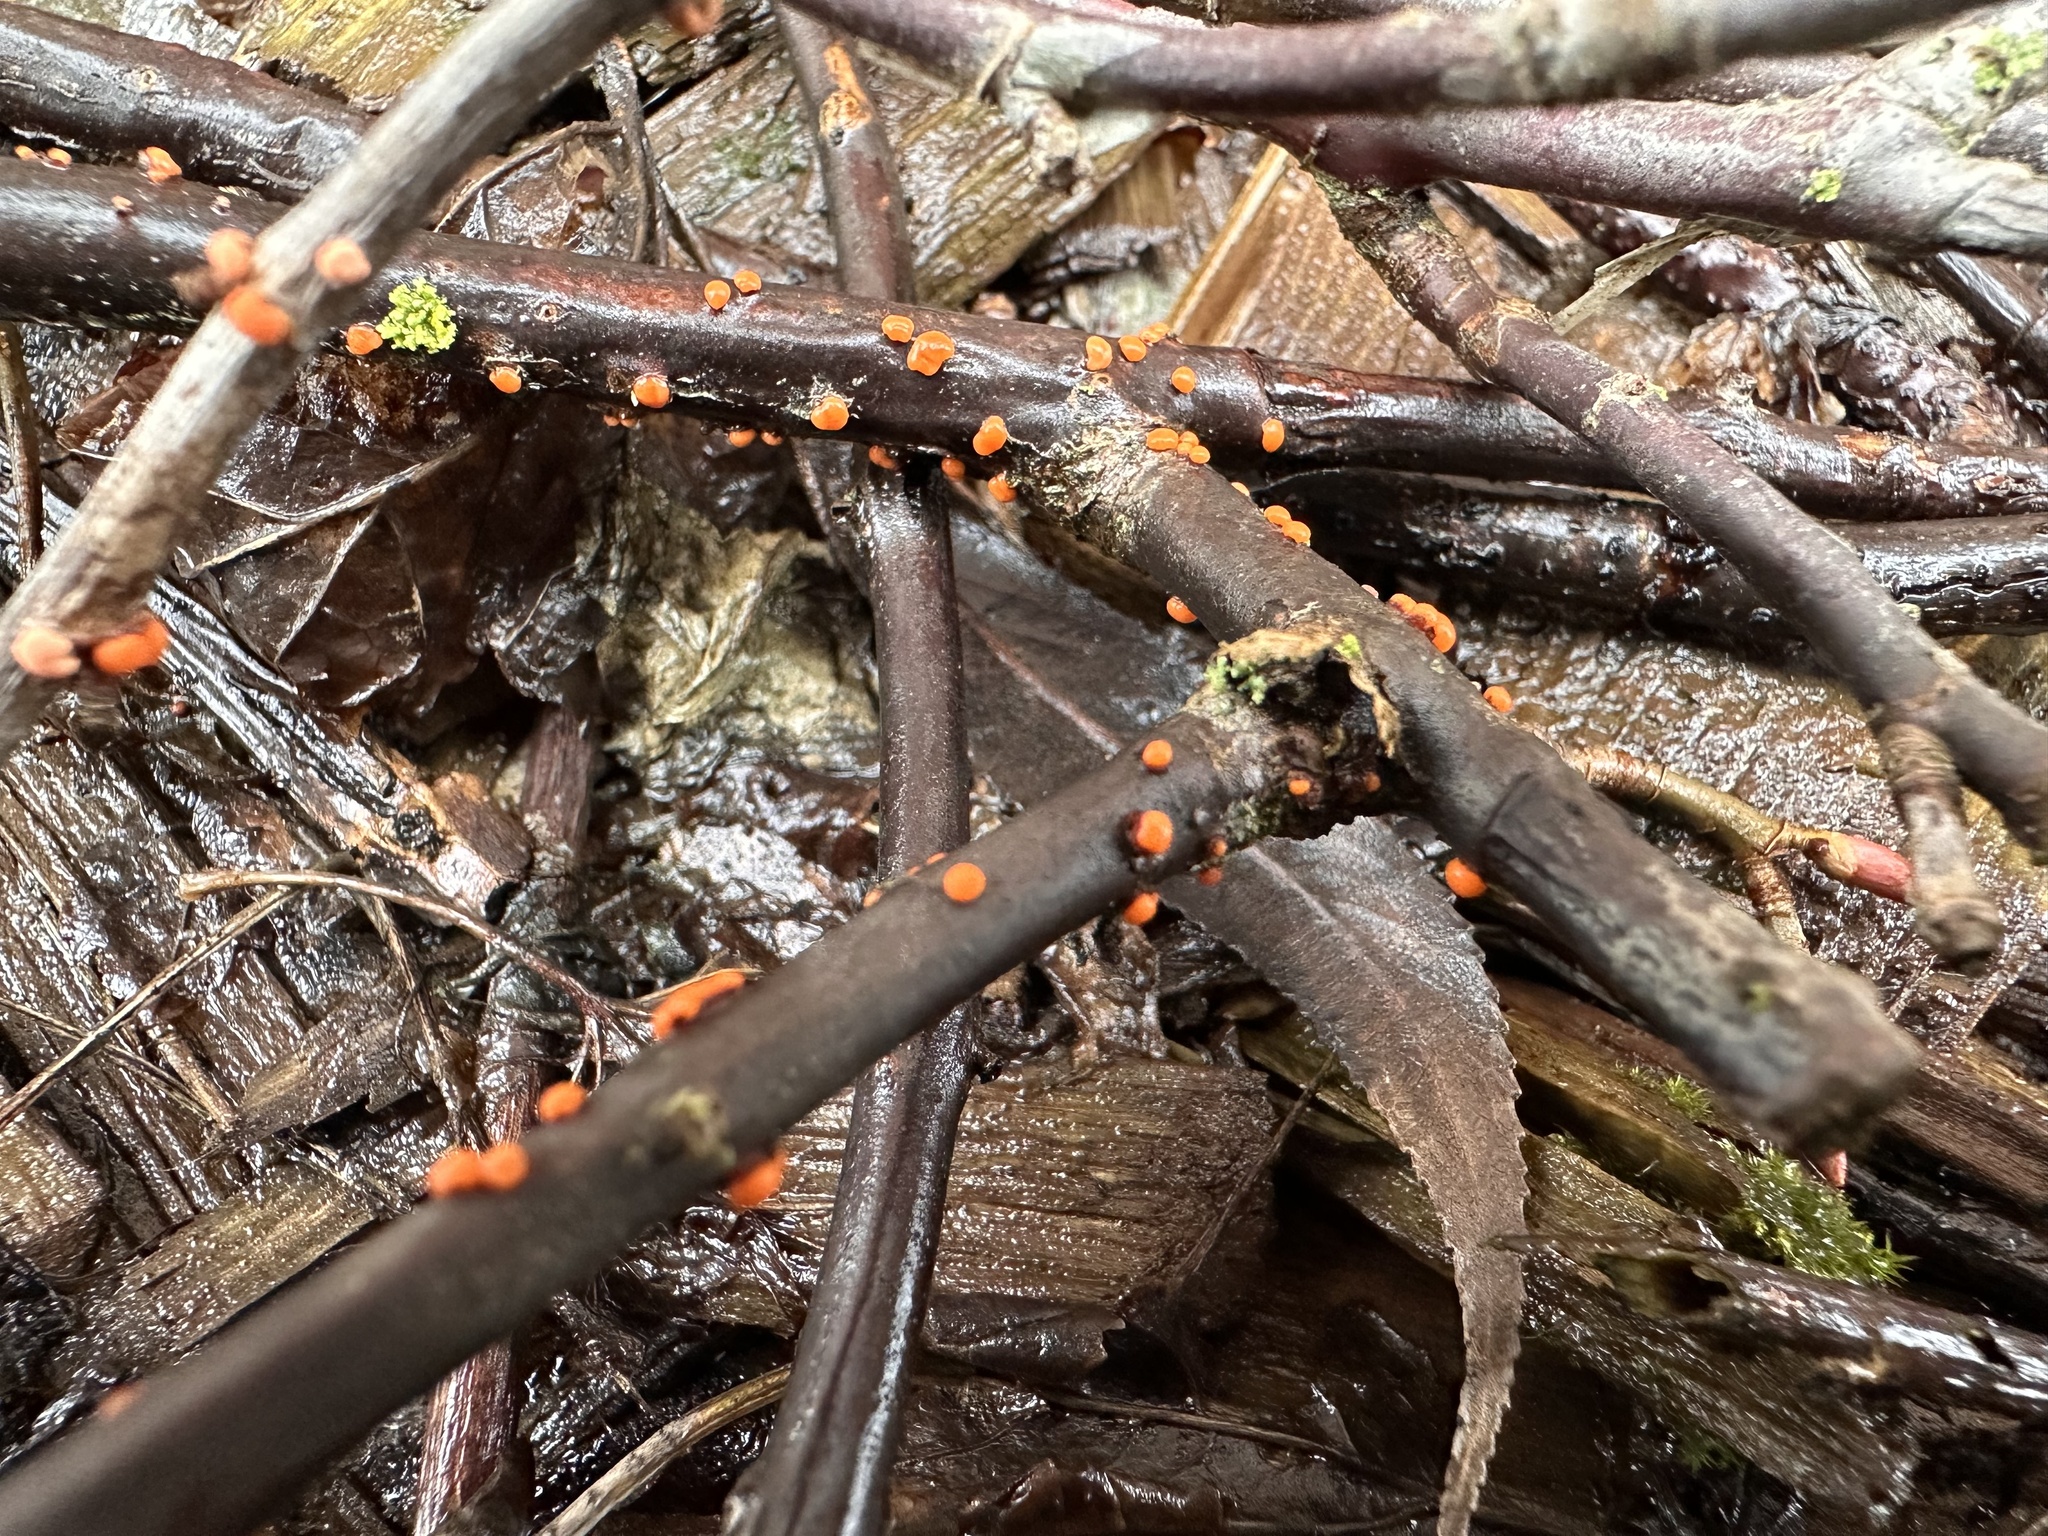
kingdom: Fungi
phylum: Ascomycota
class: Sordariomycetes
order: Hypocreales
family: Nectriaceae
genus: Nectria
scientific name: Nectria cinnabarina
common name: Coral spot
